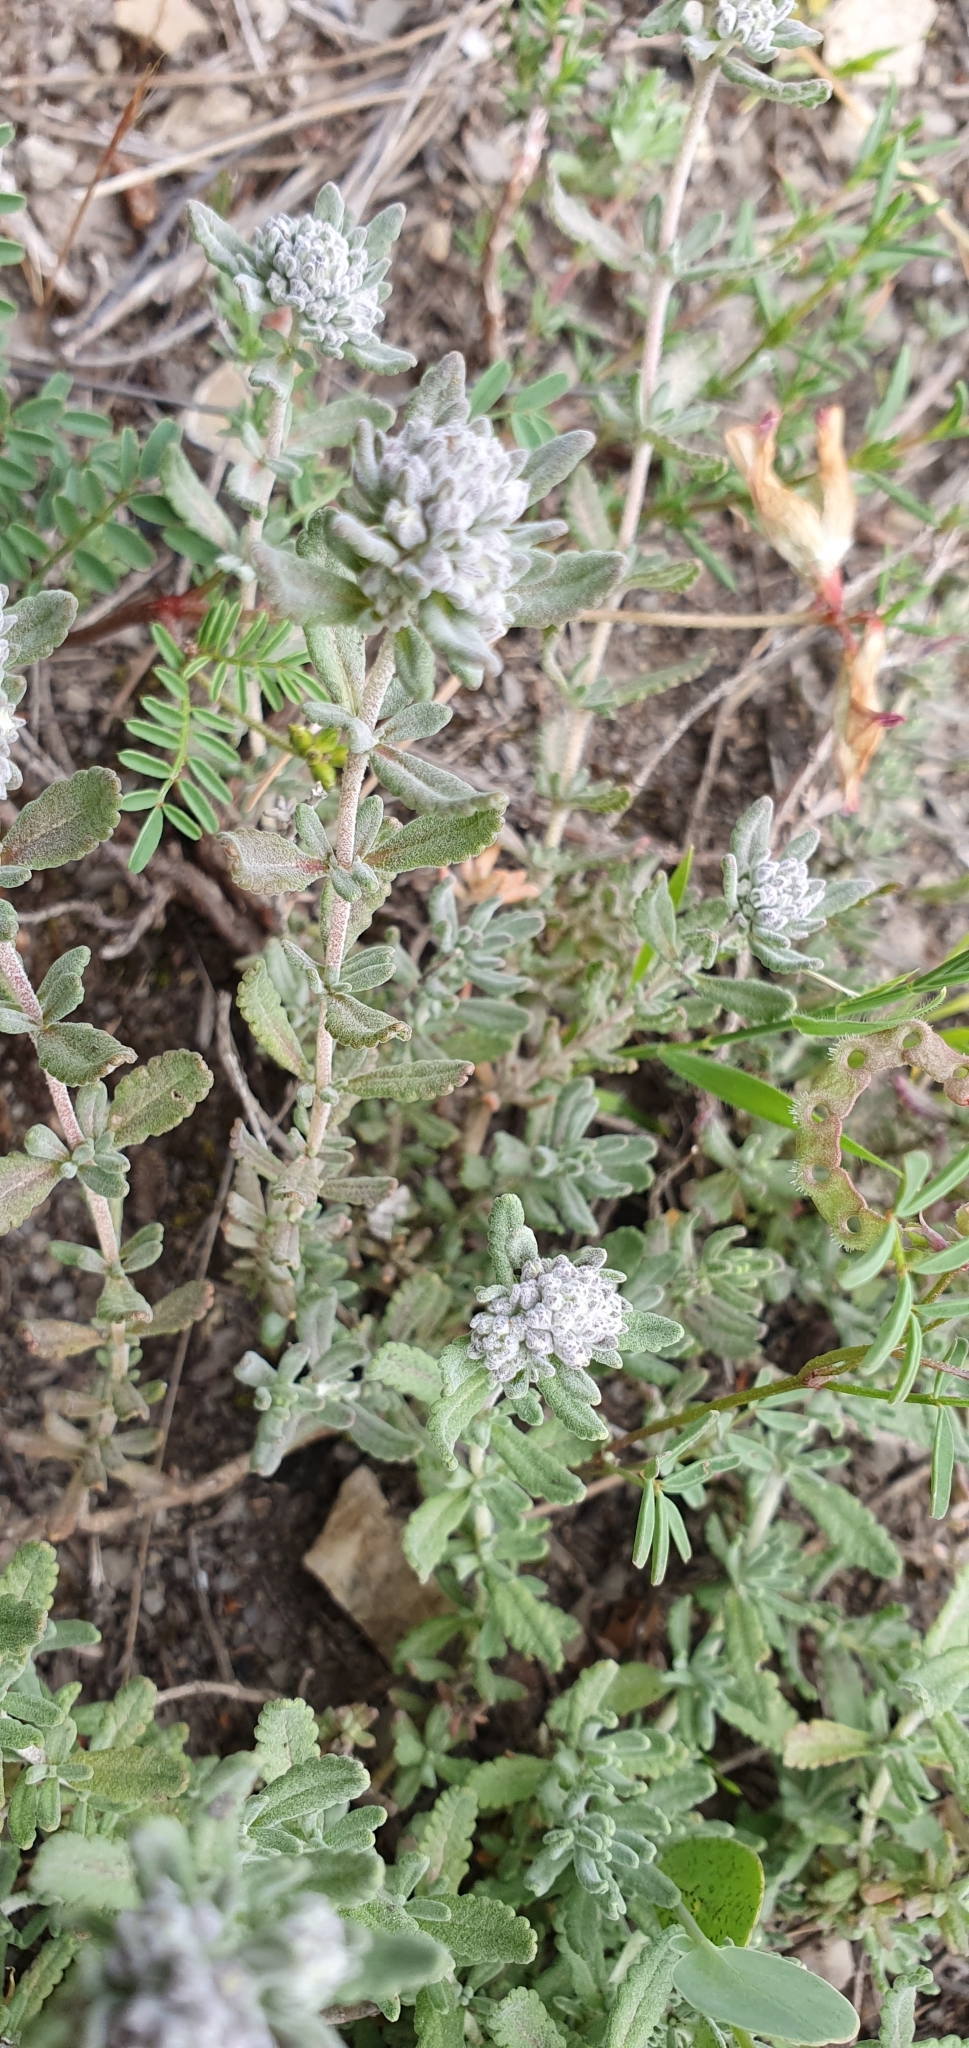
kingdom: Plantae
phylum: Tracheophyta
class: Magnoliopsida
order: Lamiales
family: Lamiaceae
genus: Teucrium
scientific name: Teucrium capitatum
